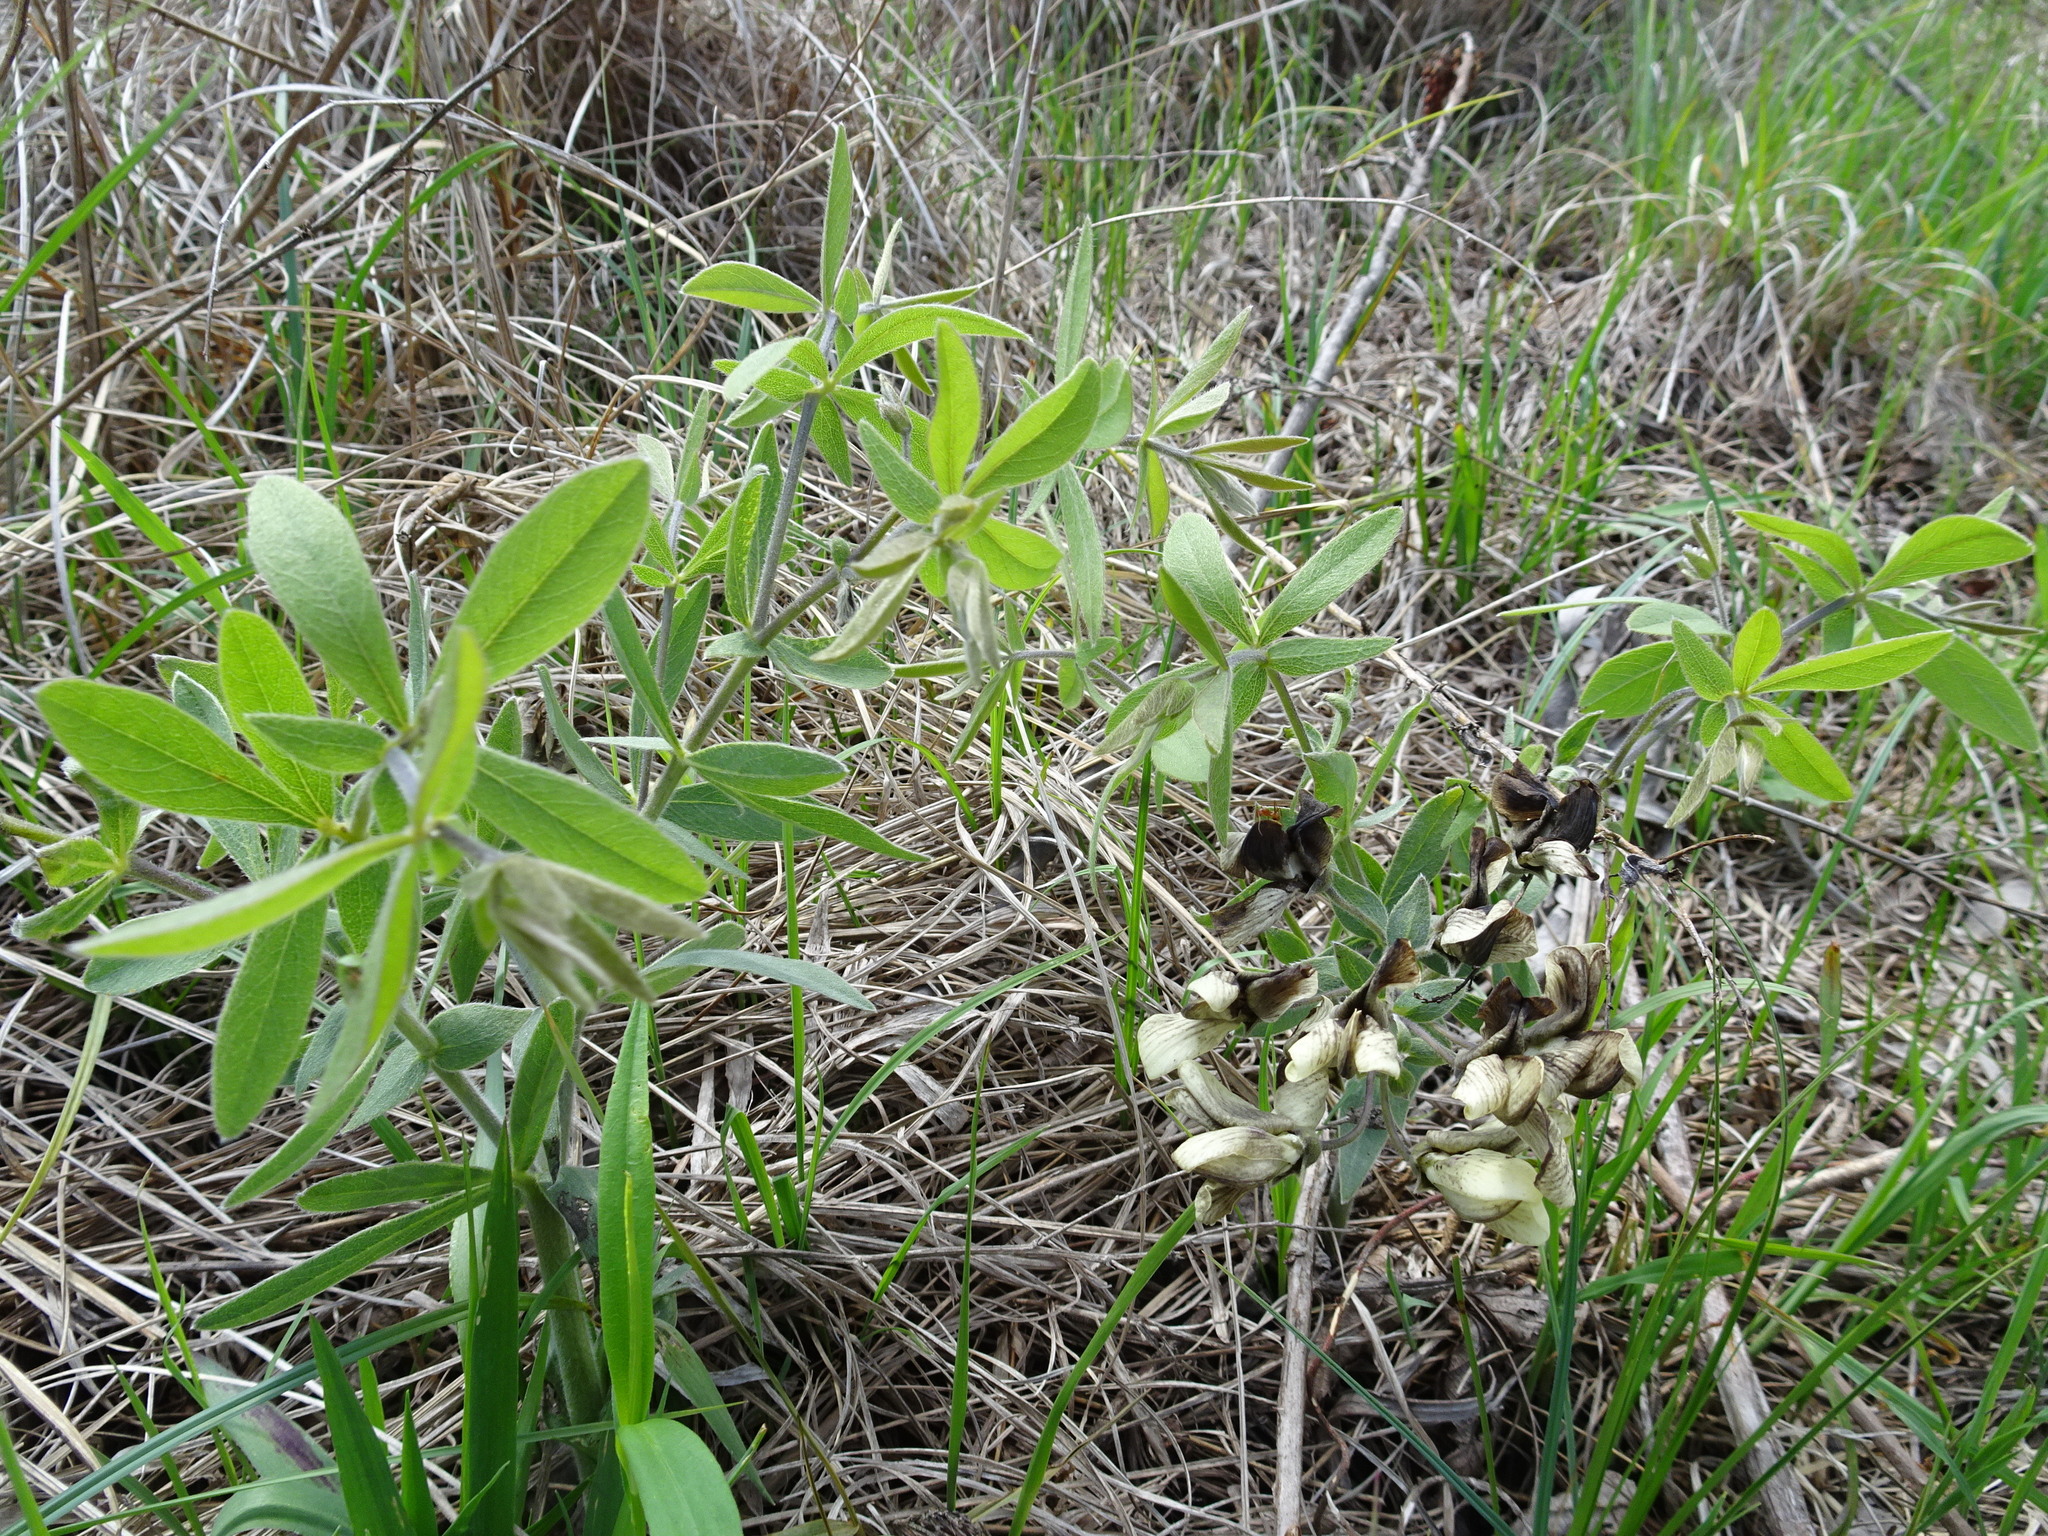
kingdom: Plantae
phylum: Tracheophyta
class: Magnoliopsida
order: Fabales
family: Fabaceae
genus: Baptisia
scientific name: Baptisia bracteata
